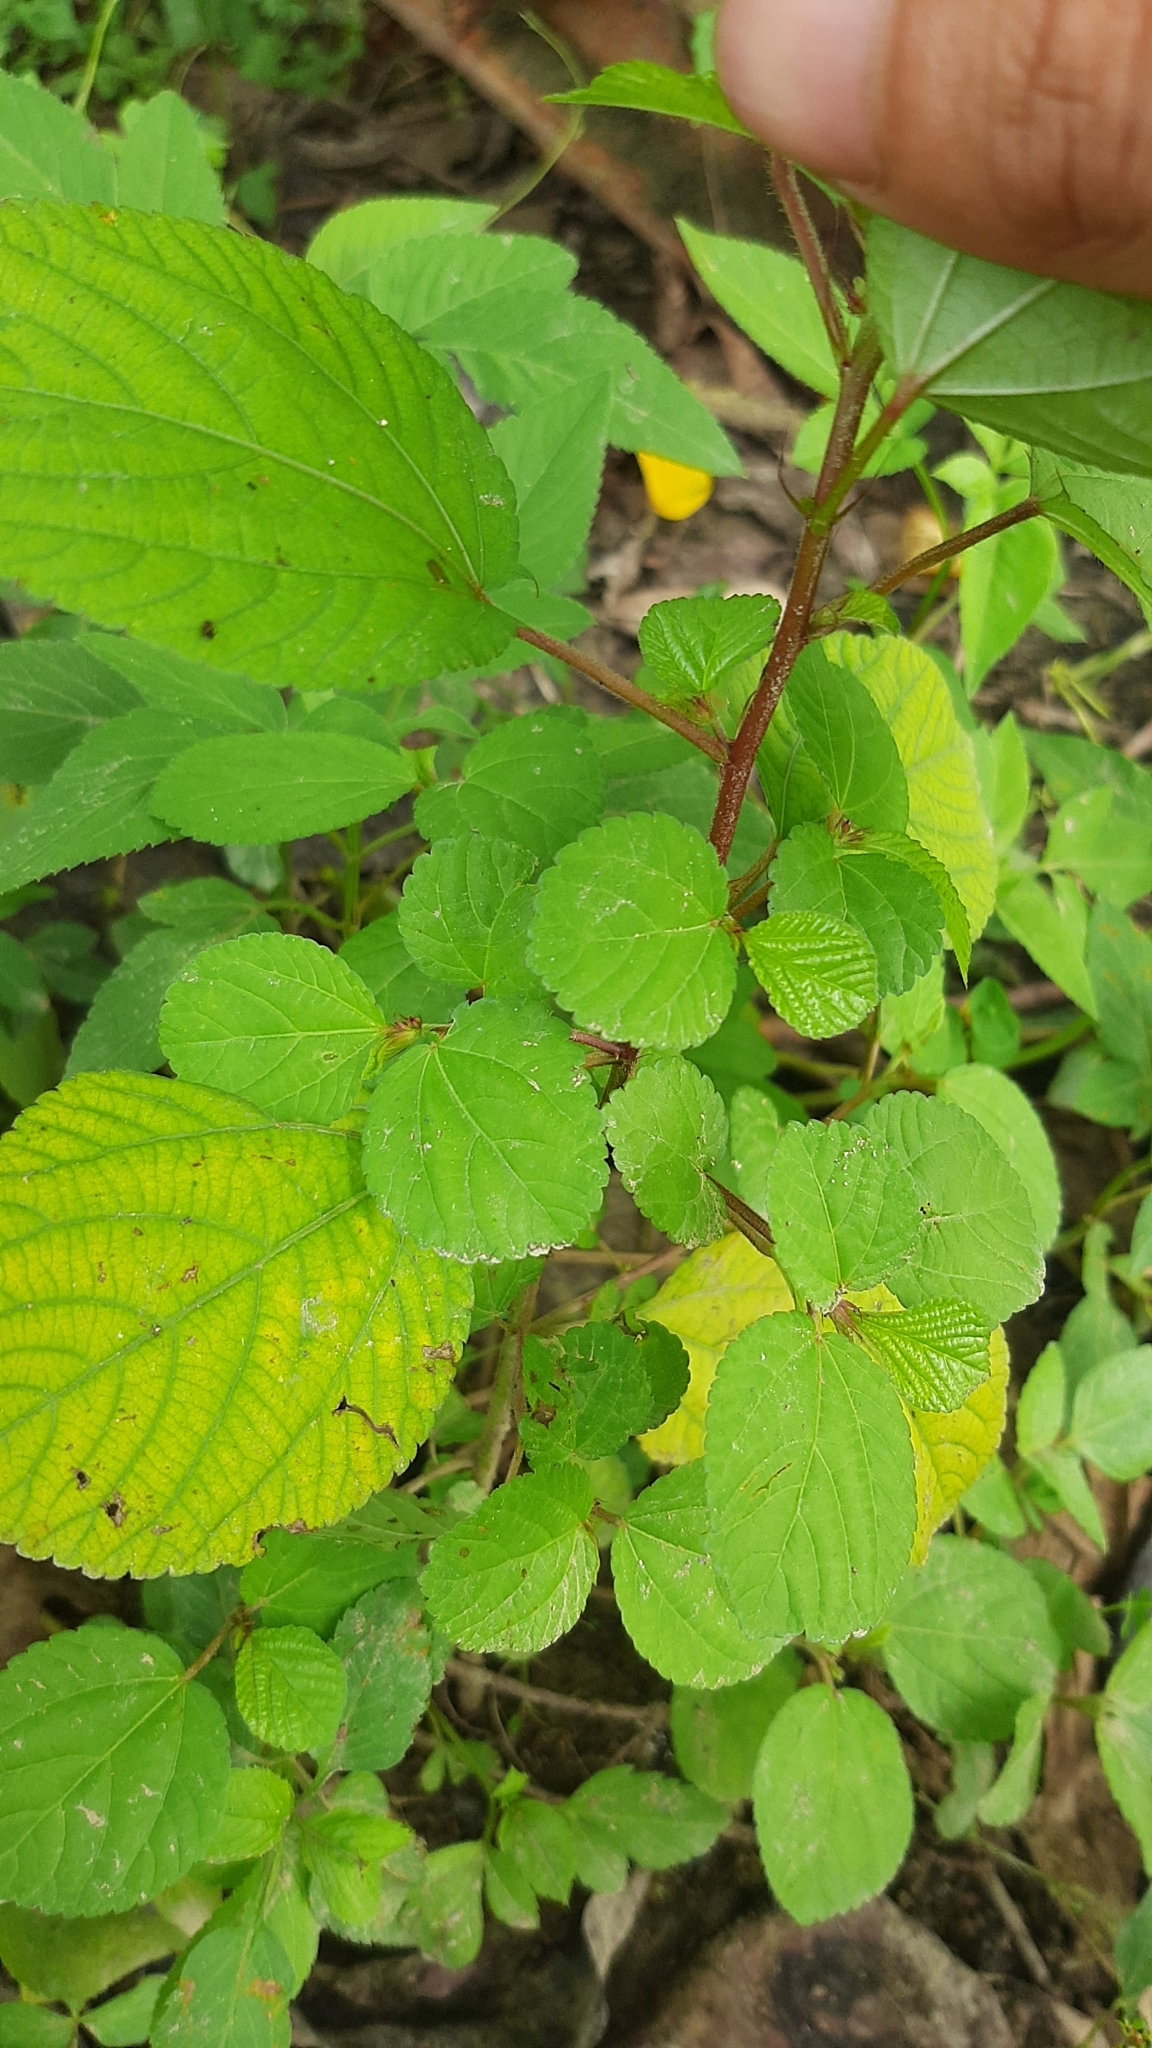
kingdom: Plantae
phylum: Tracheophyta
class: Magnoliopsida
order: Malvales
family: Malvaceae
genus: Corchorus
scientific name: Corchorus aestuans
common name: Jute
